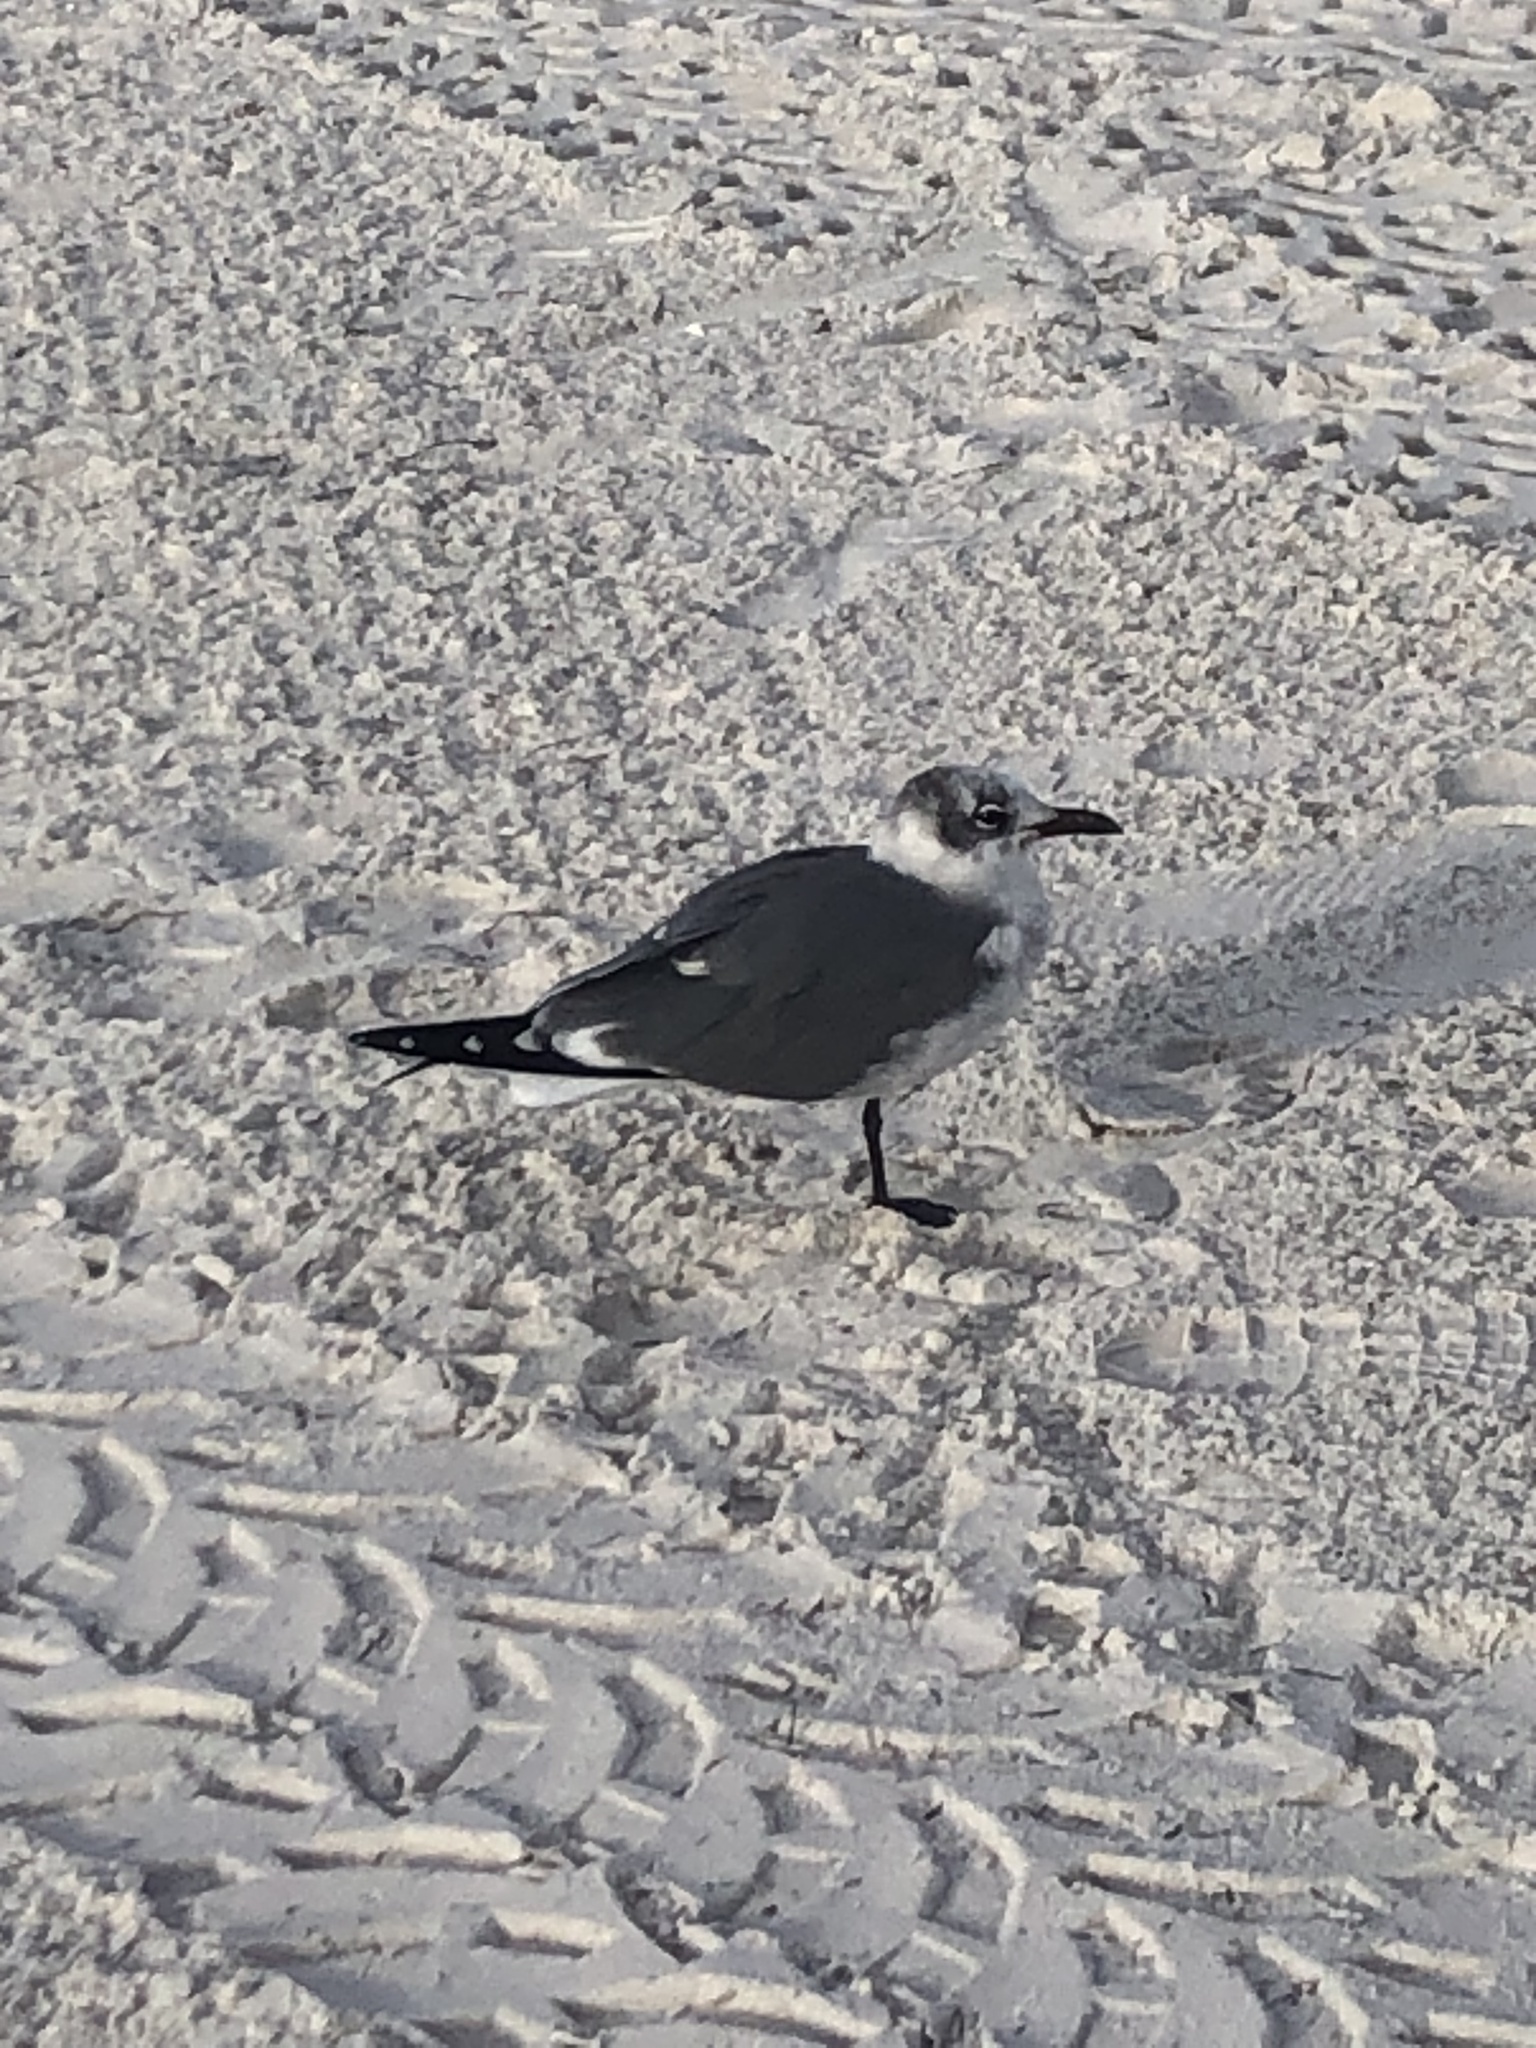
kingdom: Animalia
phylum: Chordata
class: Aves
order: Charadriiformes
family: Laridae
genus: Leucophaeus
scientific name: Leucophaeus atricilla
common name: Laughing gull
